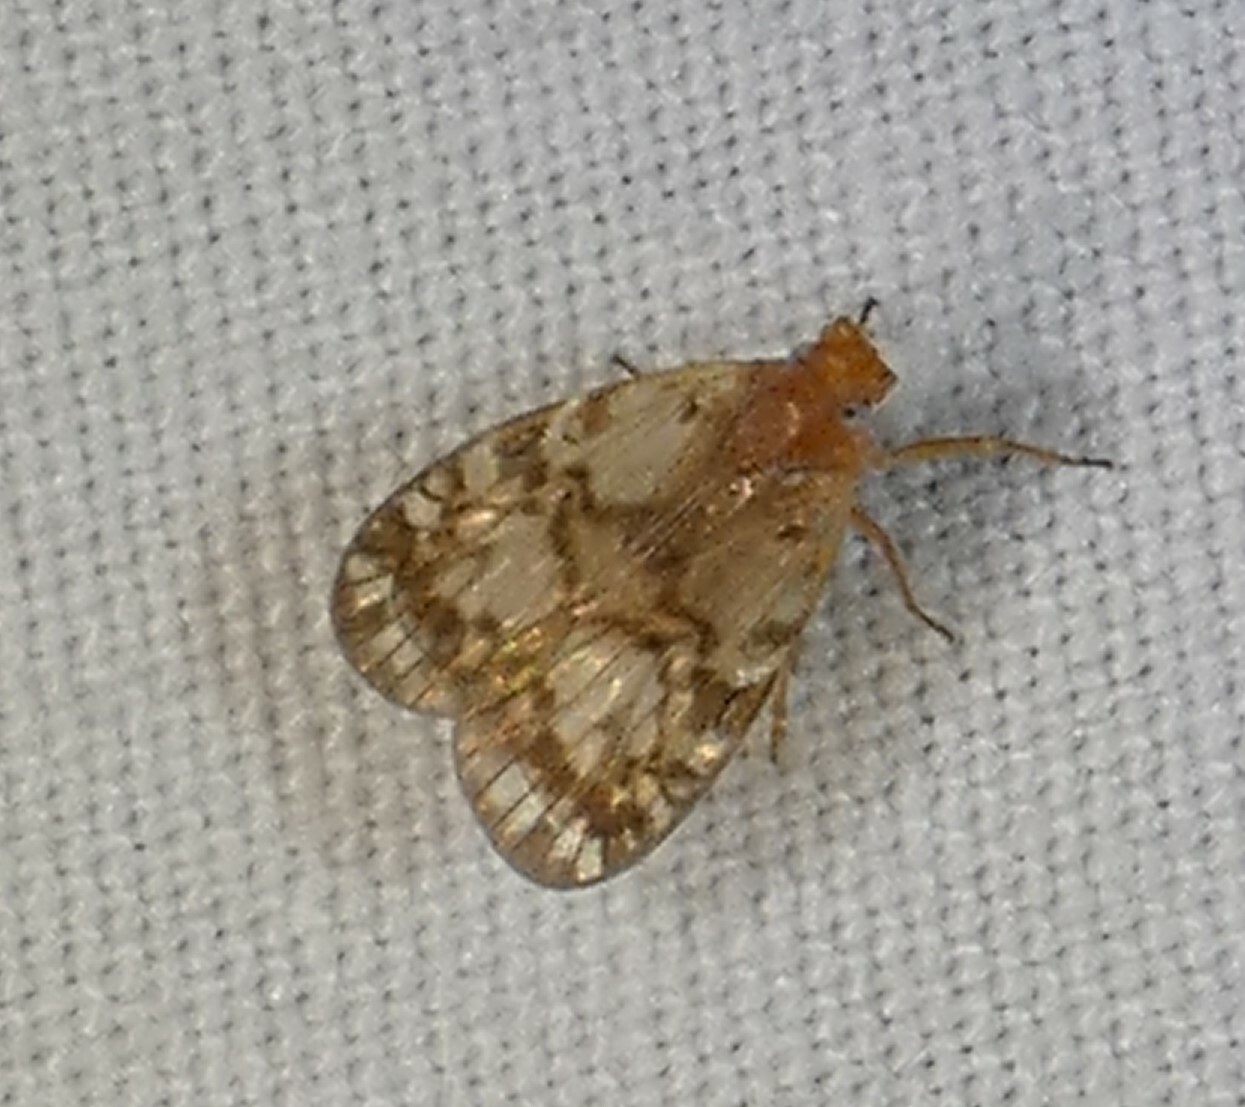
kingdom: Animalia
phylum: Arthropoda
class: Insecta
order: Hemiptera
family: Cixiidae
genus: Bothriocera
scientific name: Bothriocera drakei
